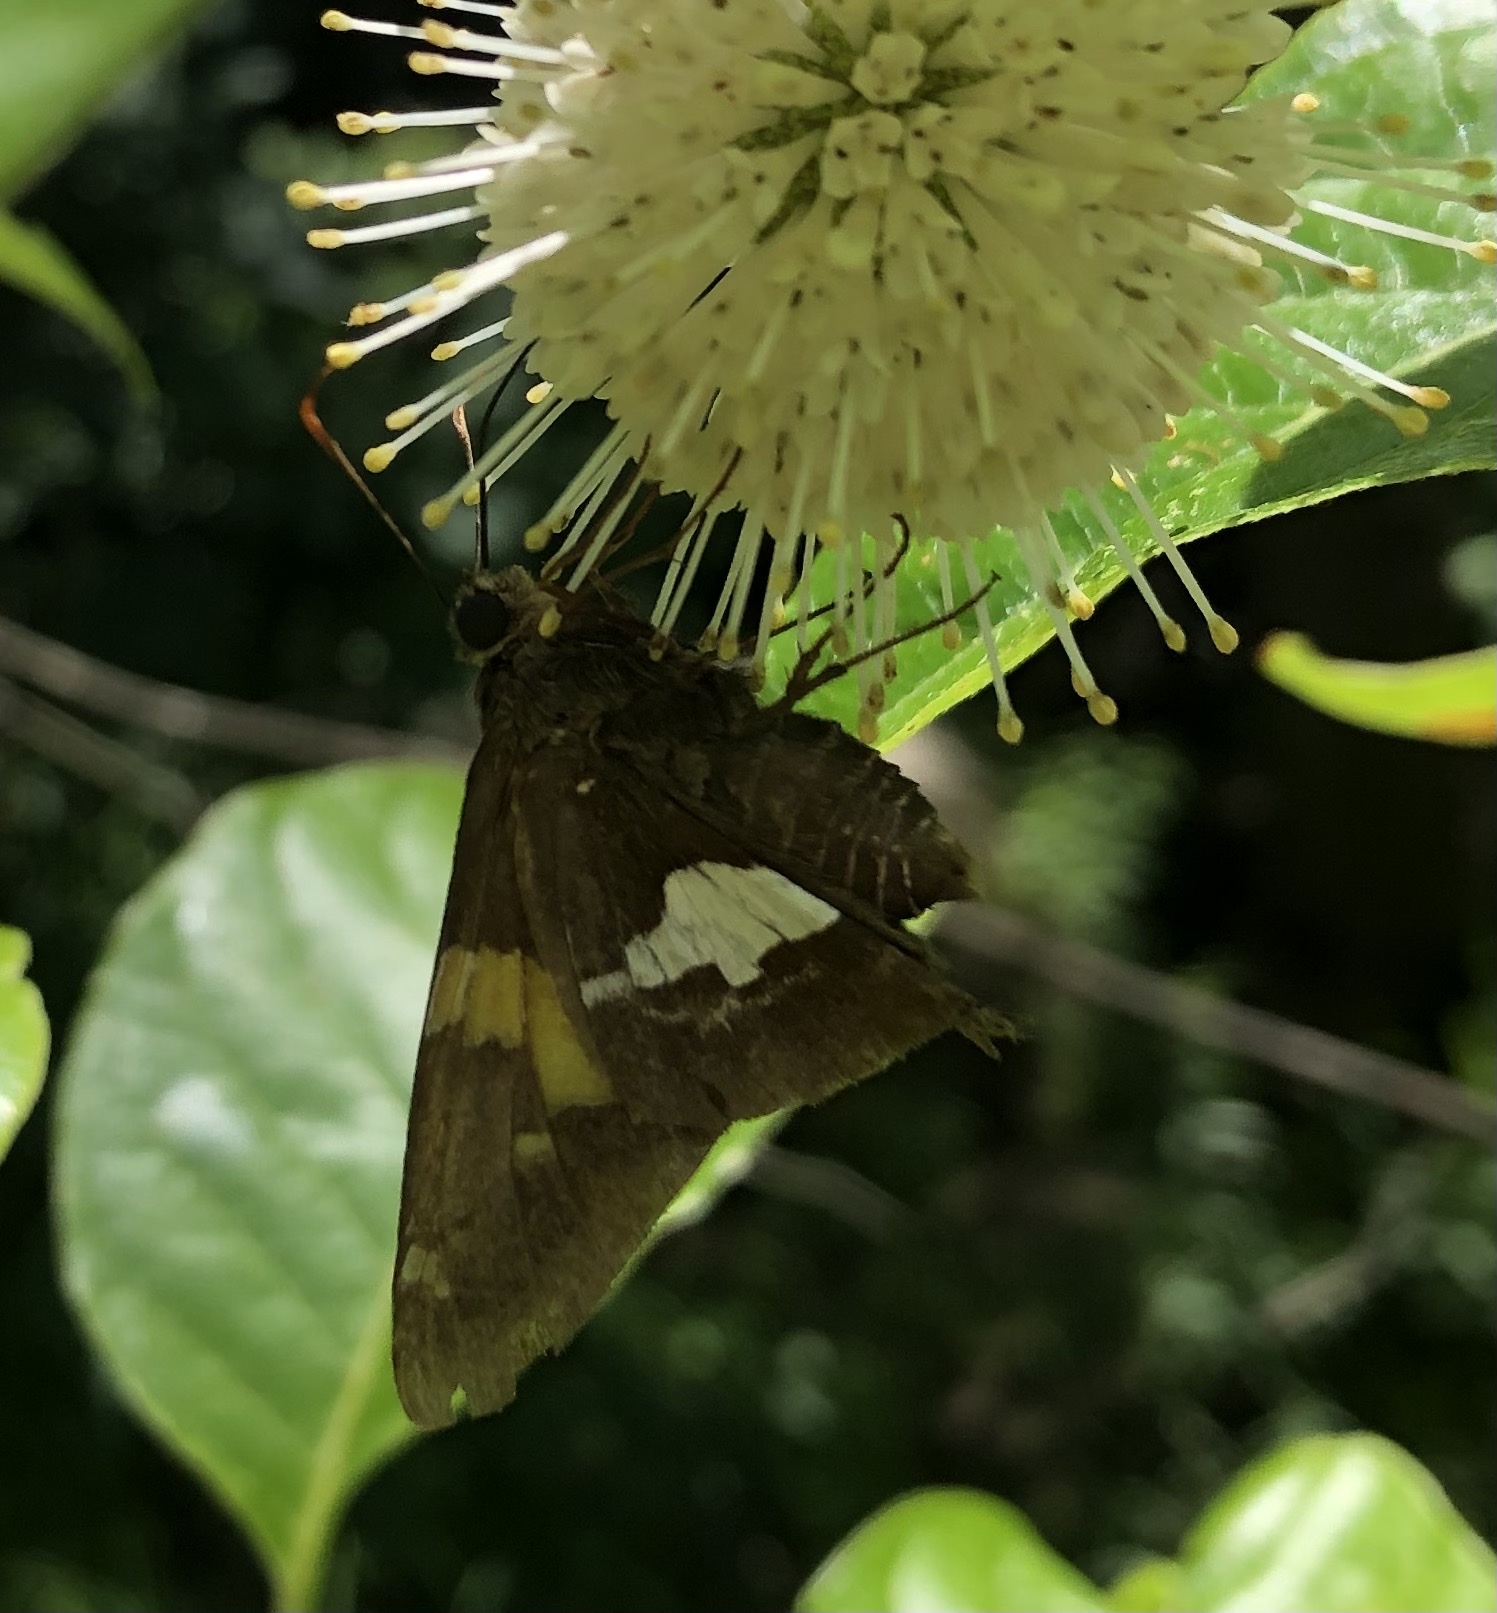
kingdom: Animalia
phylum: Arthropoda
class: Insecta
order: Lepidoptera
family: Hesperiidae
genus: Epargyreus
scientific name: Epargyreus clarus
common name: Silver-spotted skipper
